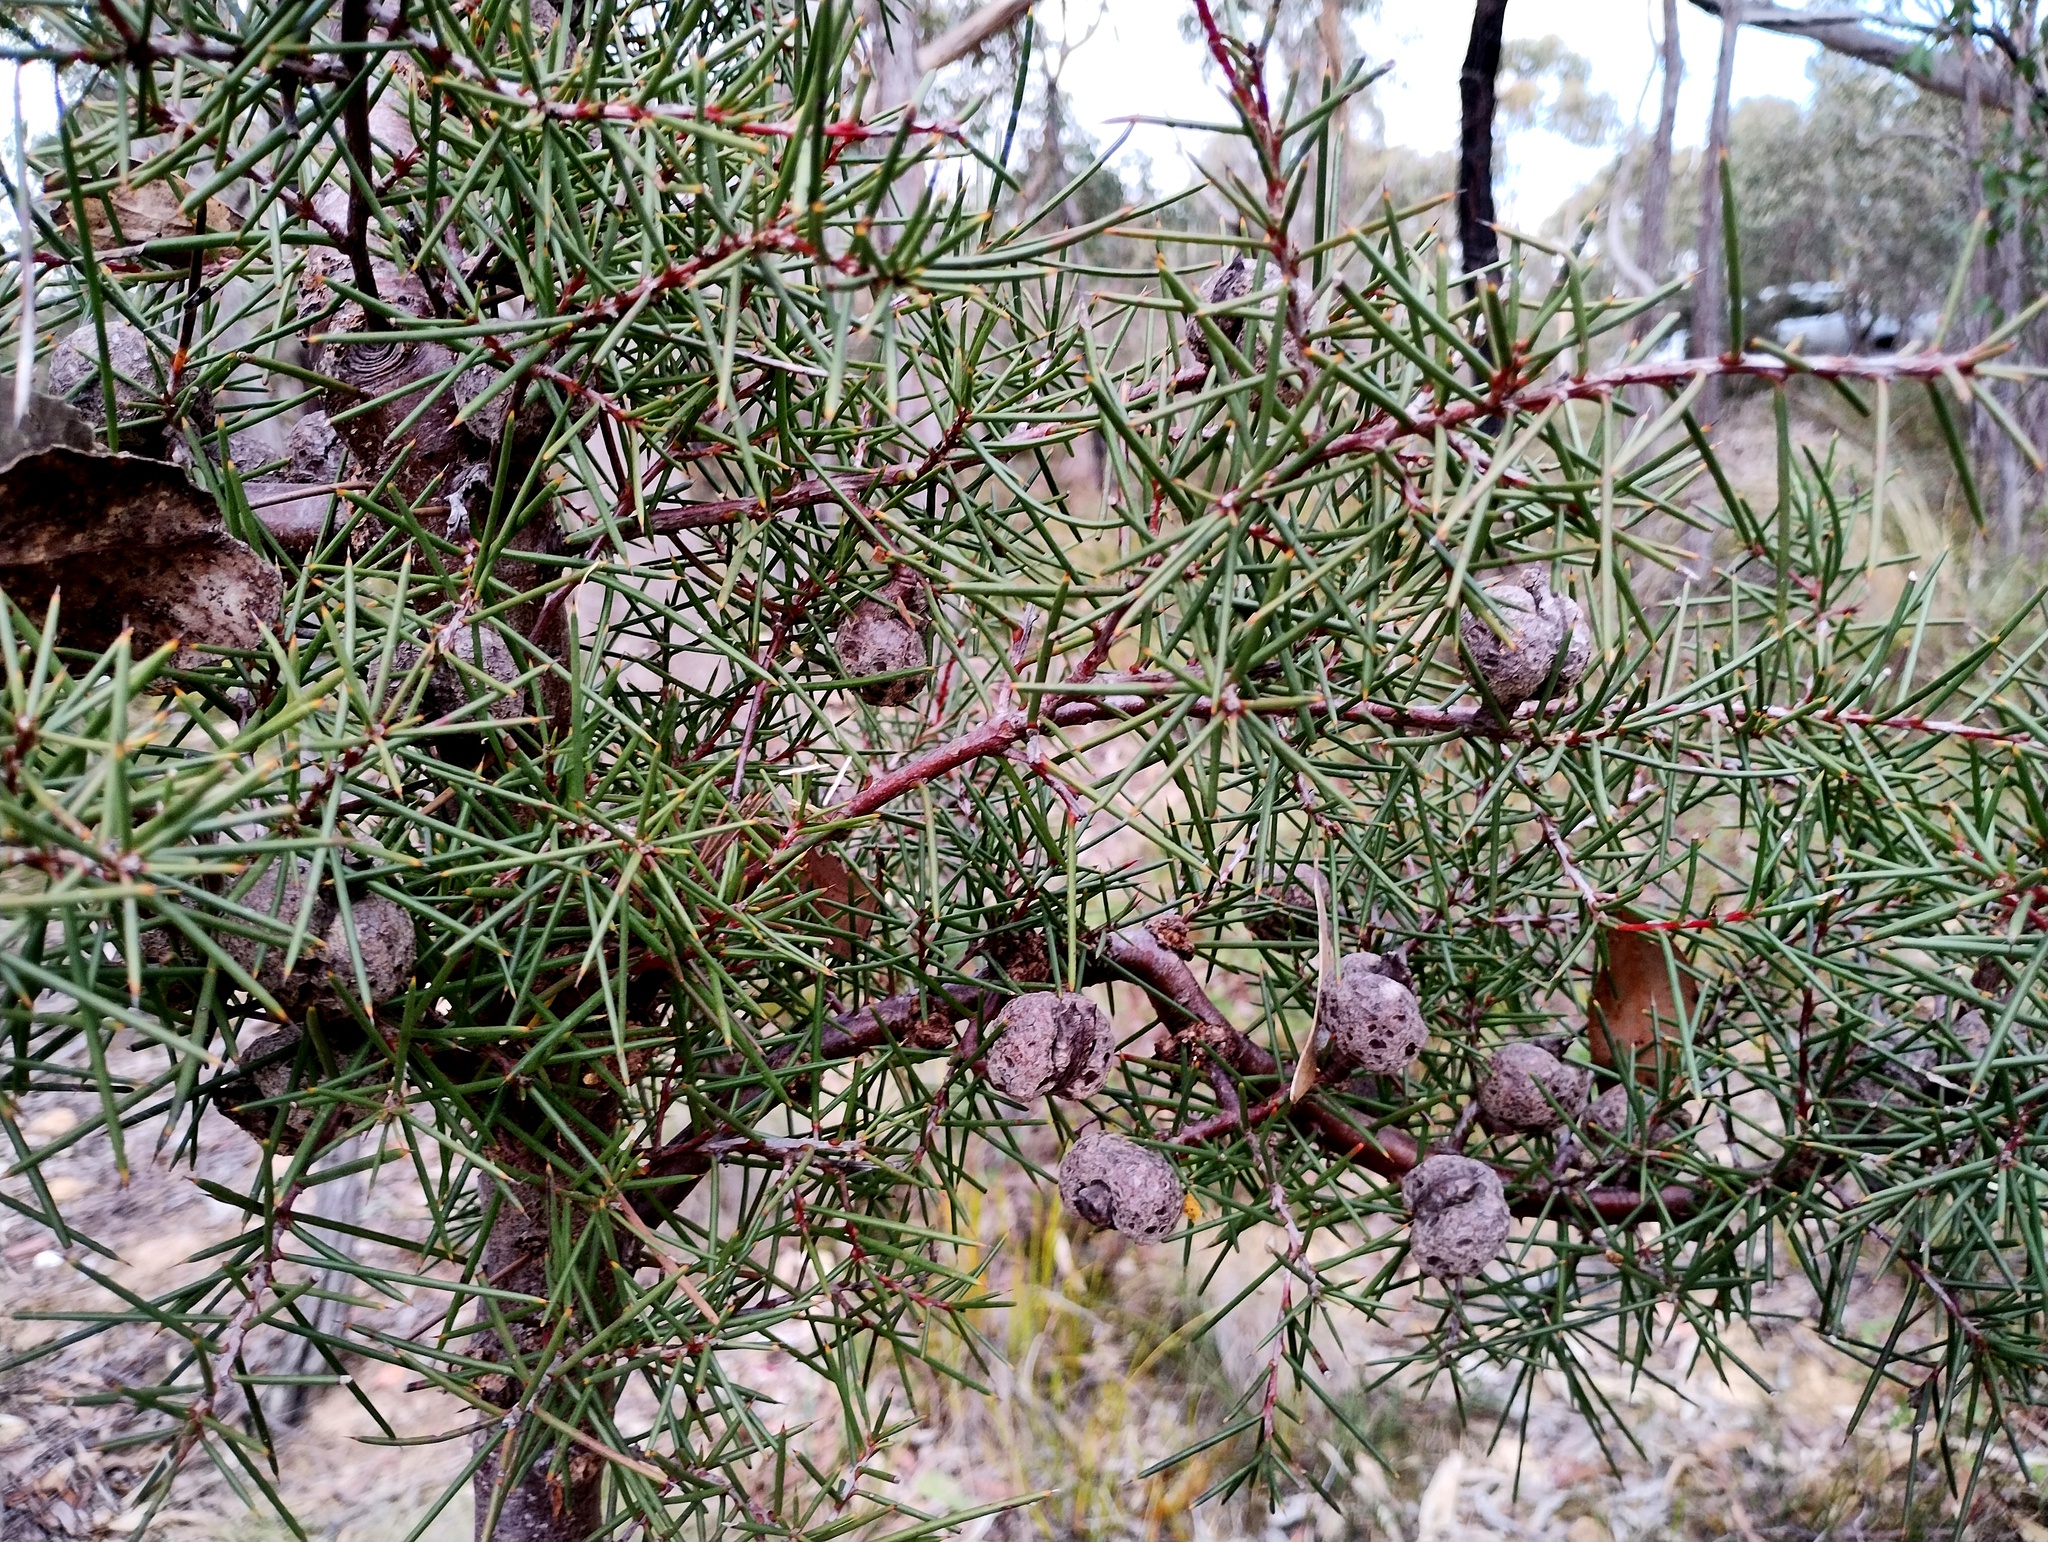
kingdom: Plantae
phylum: Tracheophyta
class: Magnoliopsida
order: Proteales
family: Proteaceae
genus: Hakea
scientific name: Hakea decurrens
